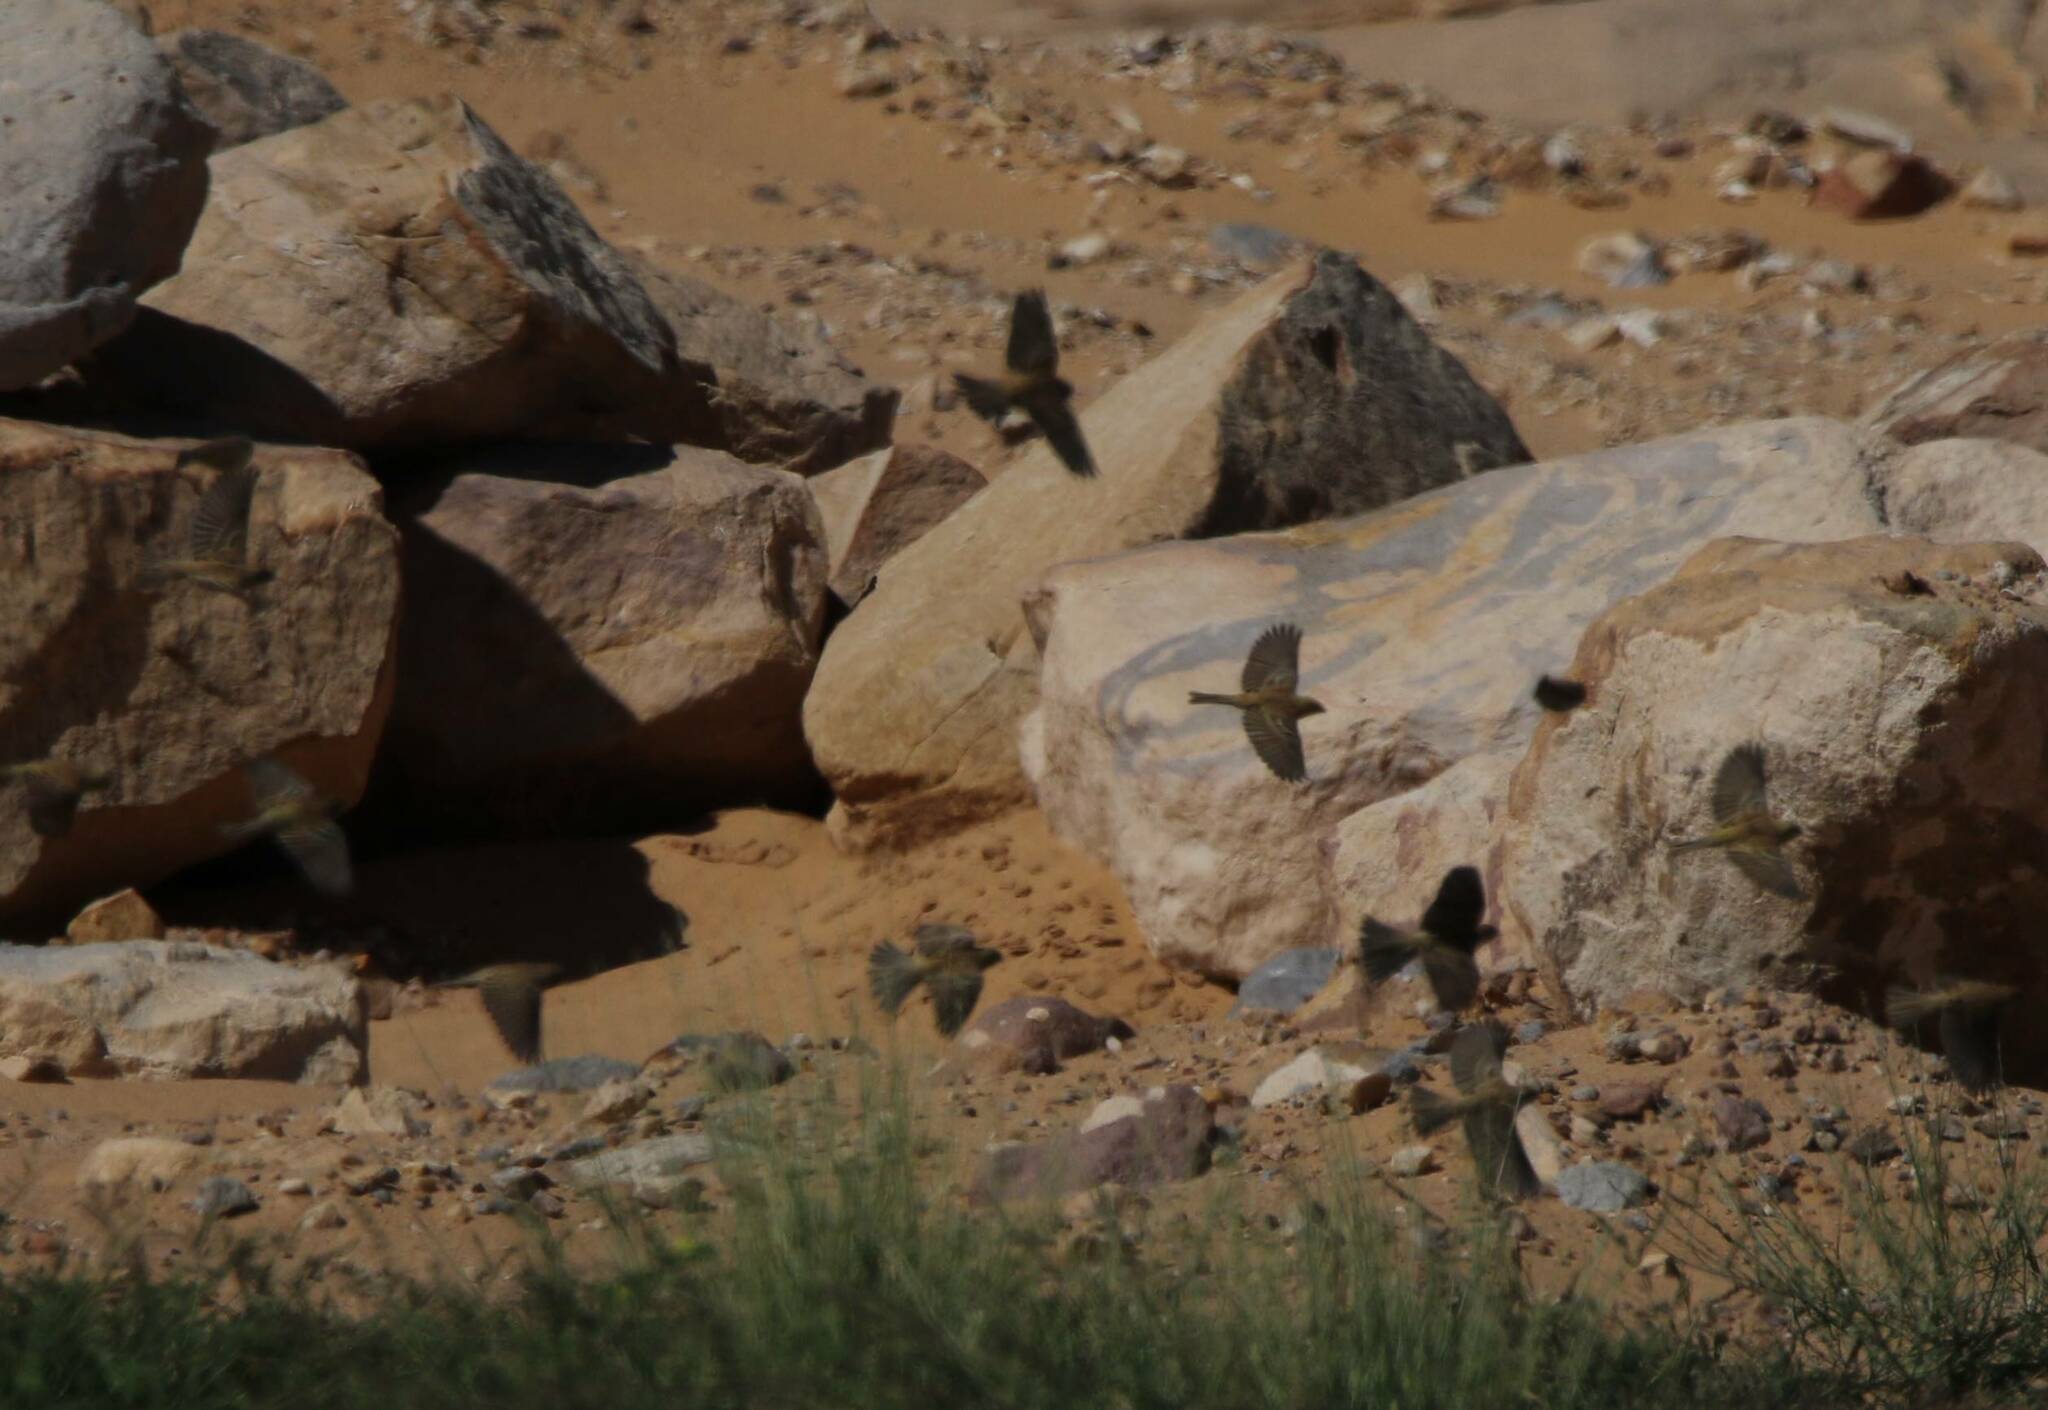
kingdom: Animalia
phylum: Chordata
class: Aves
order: Passeriformes
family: Passeridae
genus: Passer
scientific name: Passer luteus
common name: Sudan golden sparrow
